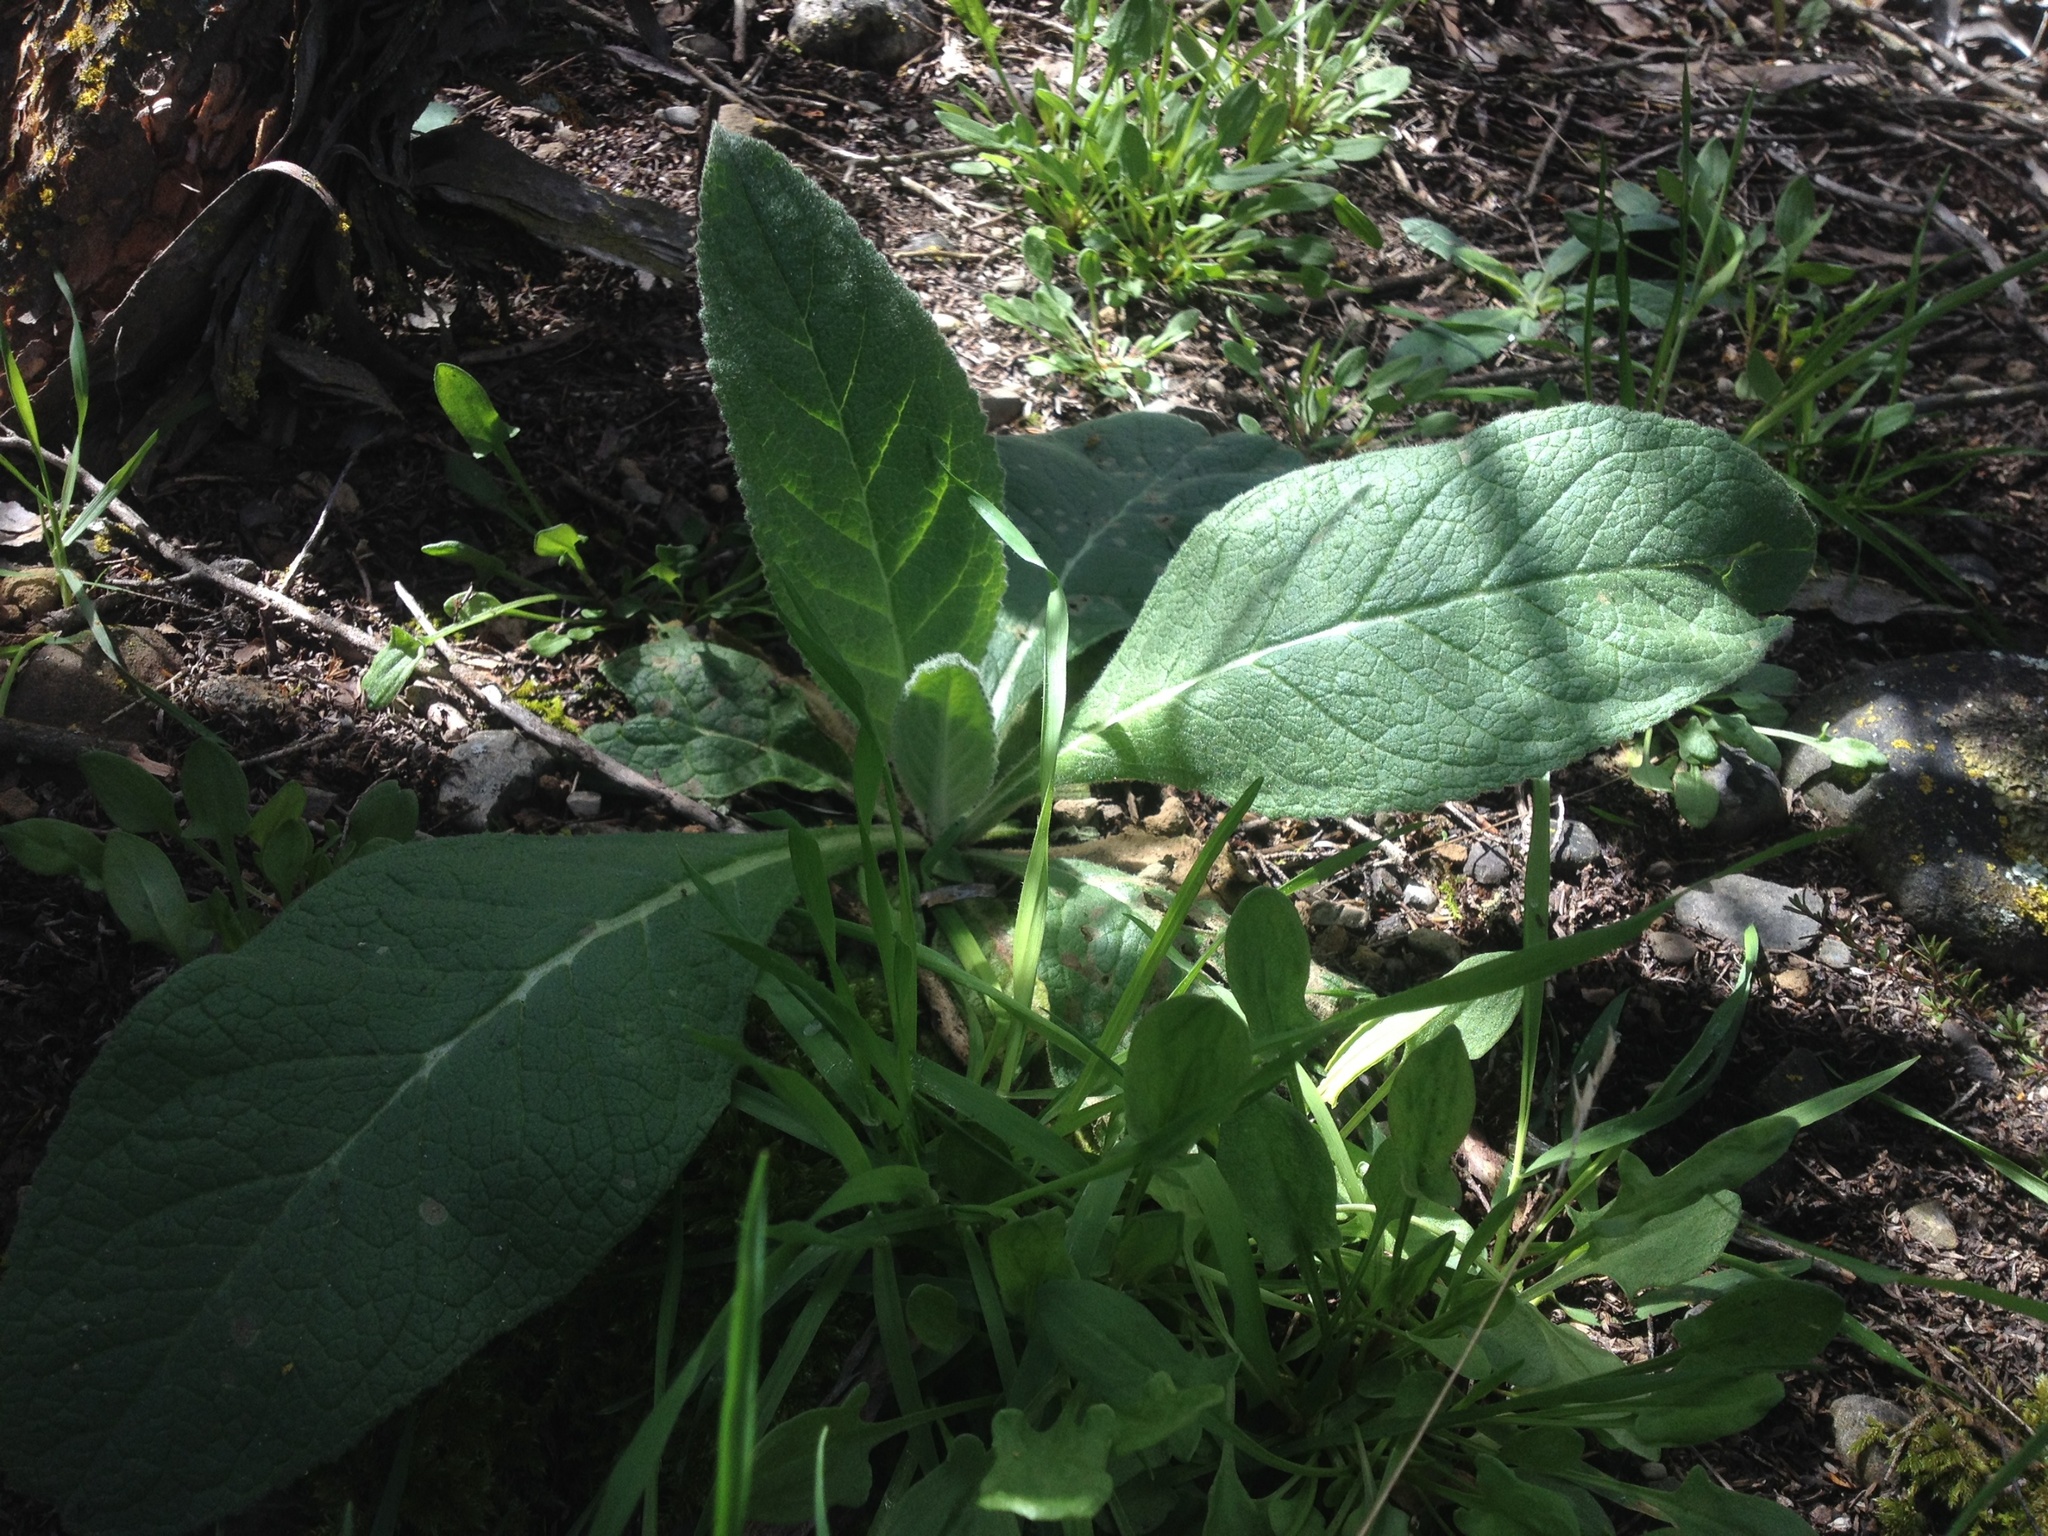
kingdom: Plantae
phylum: Tracheophyta
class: Magnoliopsida
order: Lamiales
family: Scrophulariaceae
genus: Verbascum
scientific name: Verbascum thapsus
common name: Common mullein
